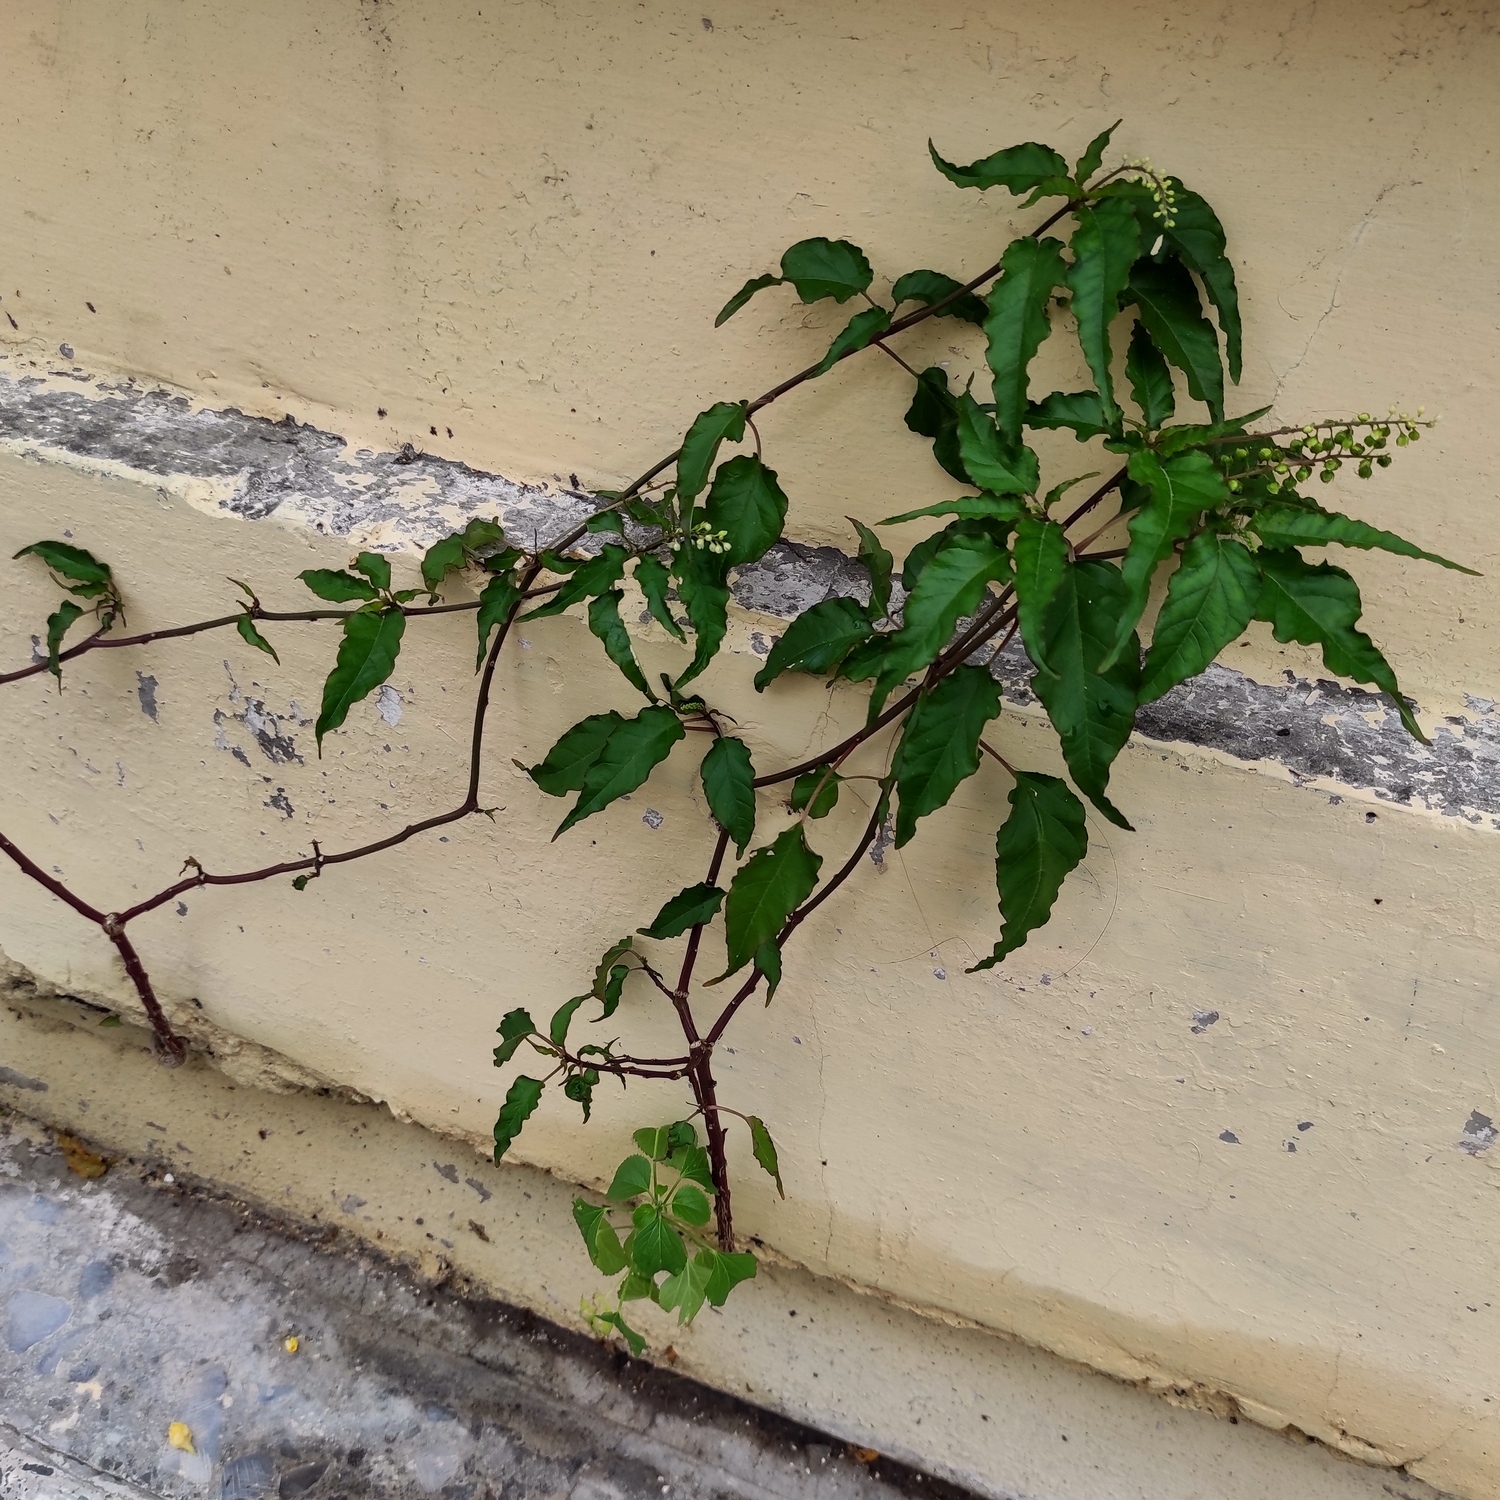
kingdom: Plantae
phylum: Tracheophyta
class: Magnoliopsida
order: Caryophyllales
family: Phytolaccaceae
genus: Rivina
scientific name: Rivina humilis
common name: Rougeplant
